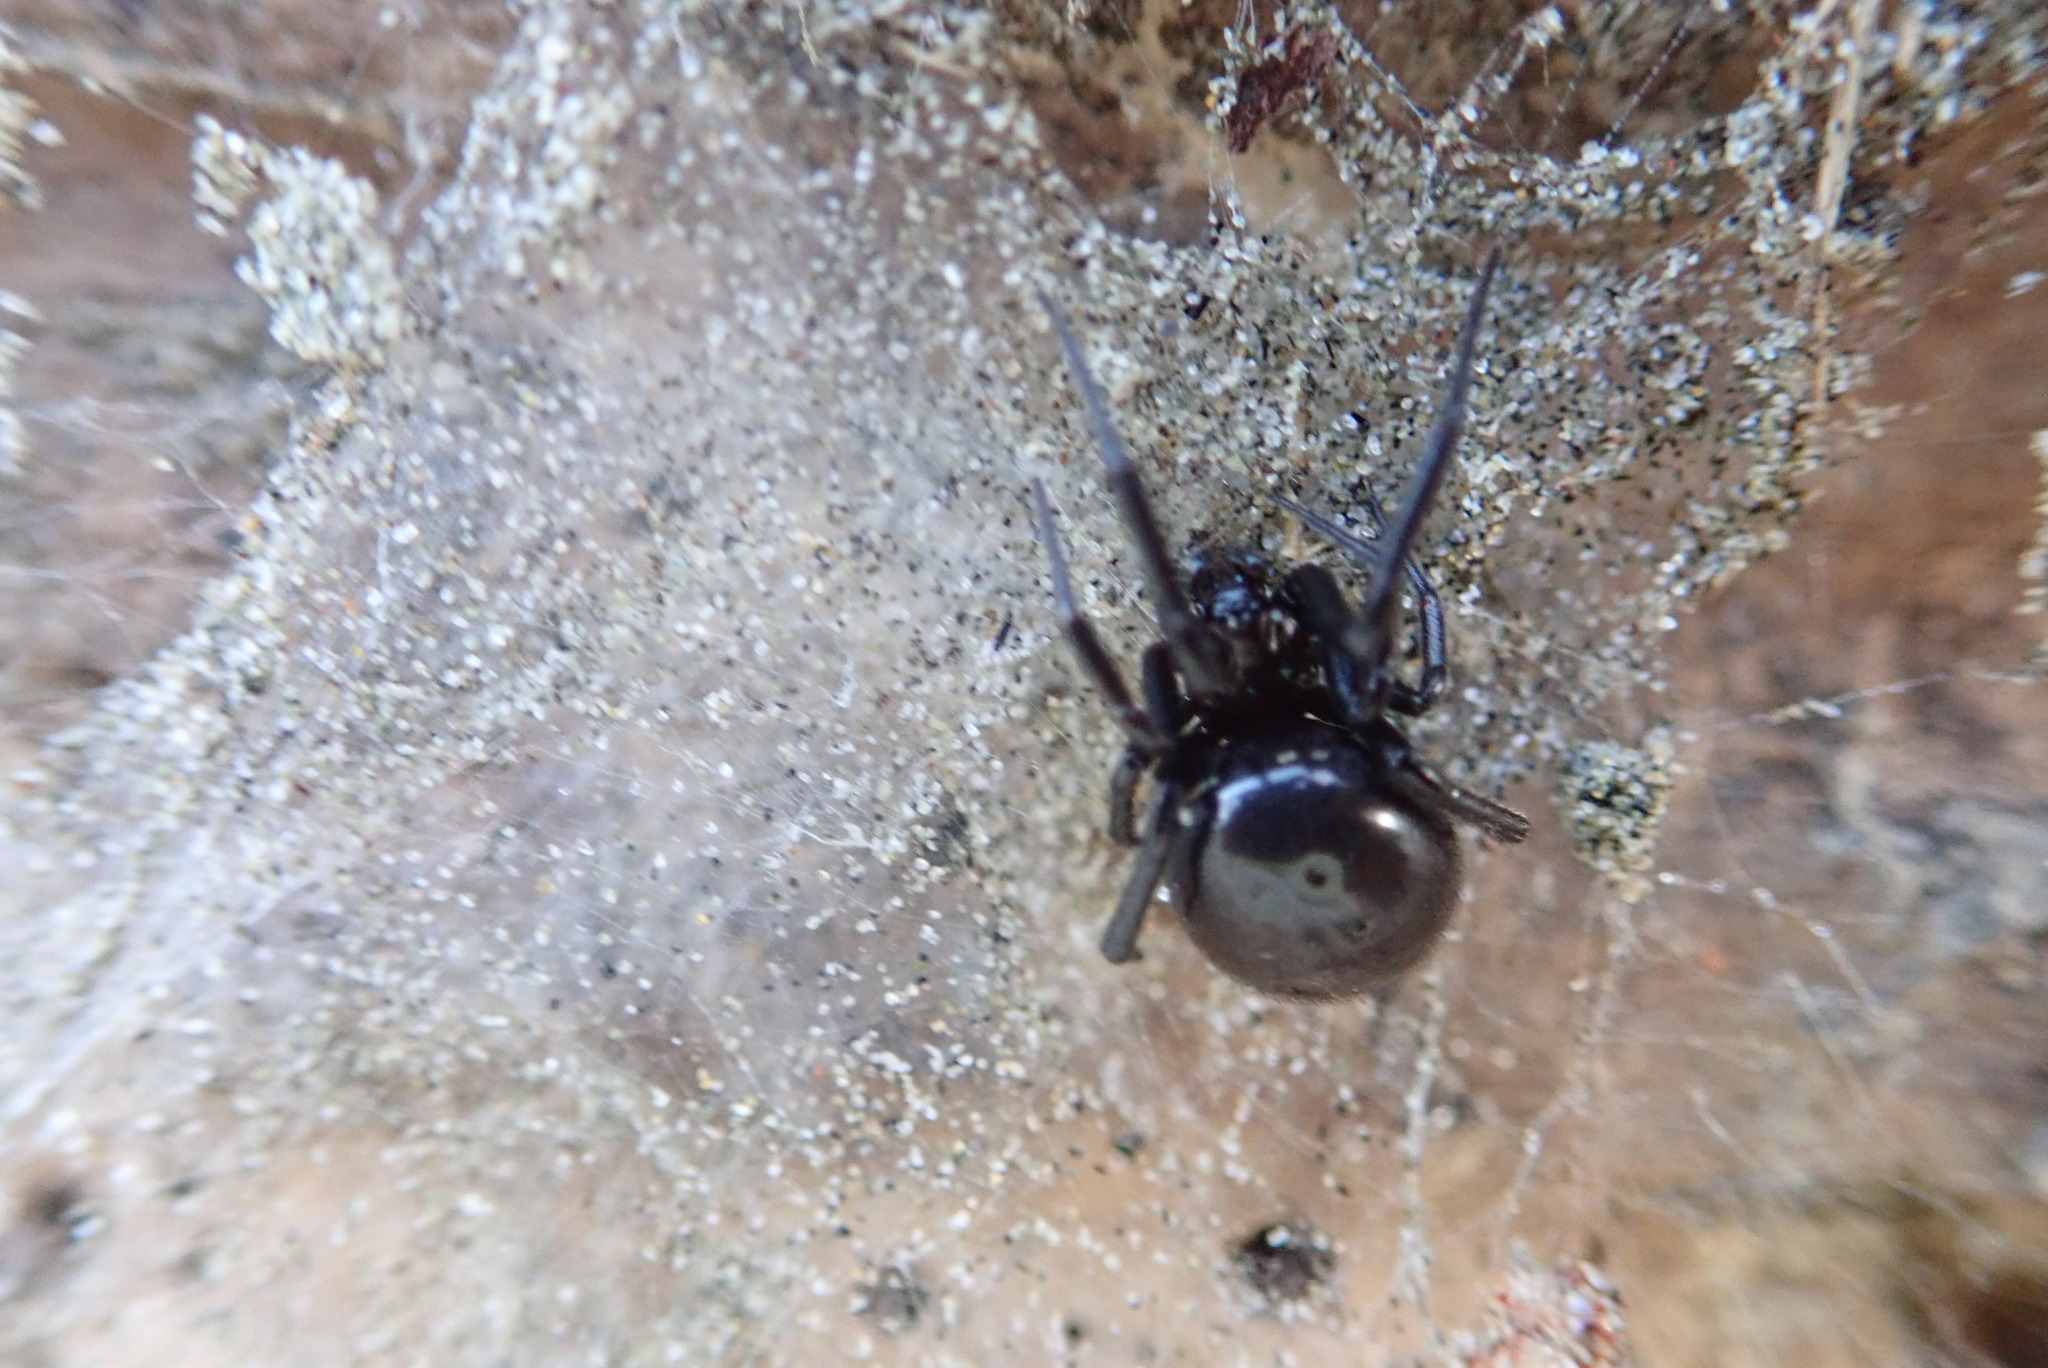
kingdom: Animalia
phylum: Arthropoda
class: Arachnida
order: Araneae
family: Theridiidae
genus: Steatoda
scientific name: Steatoda capensis
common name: Cobweb weaver
